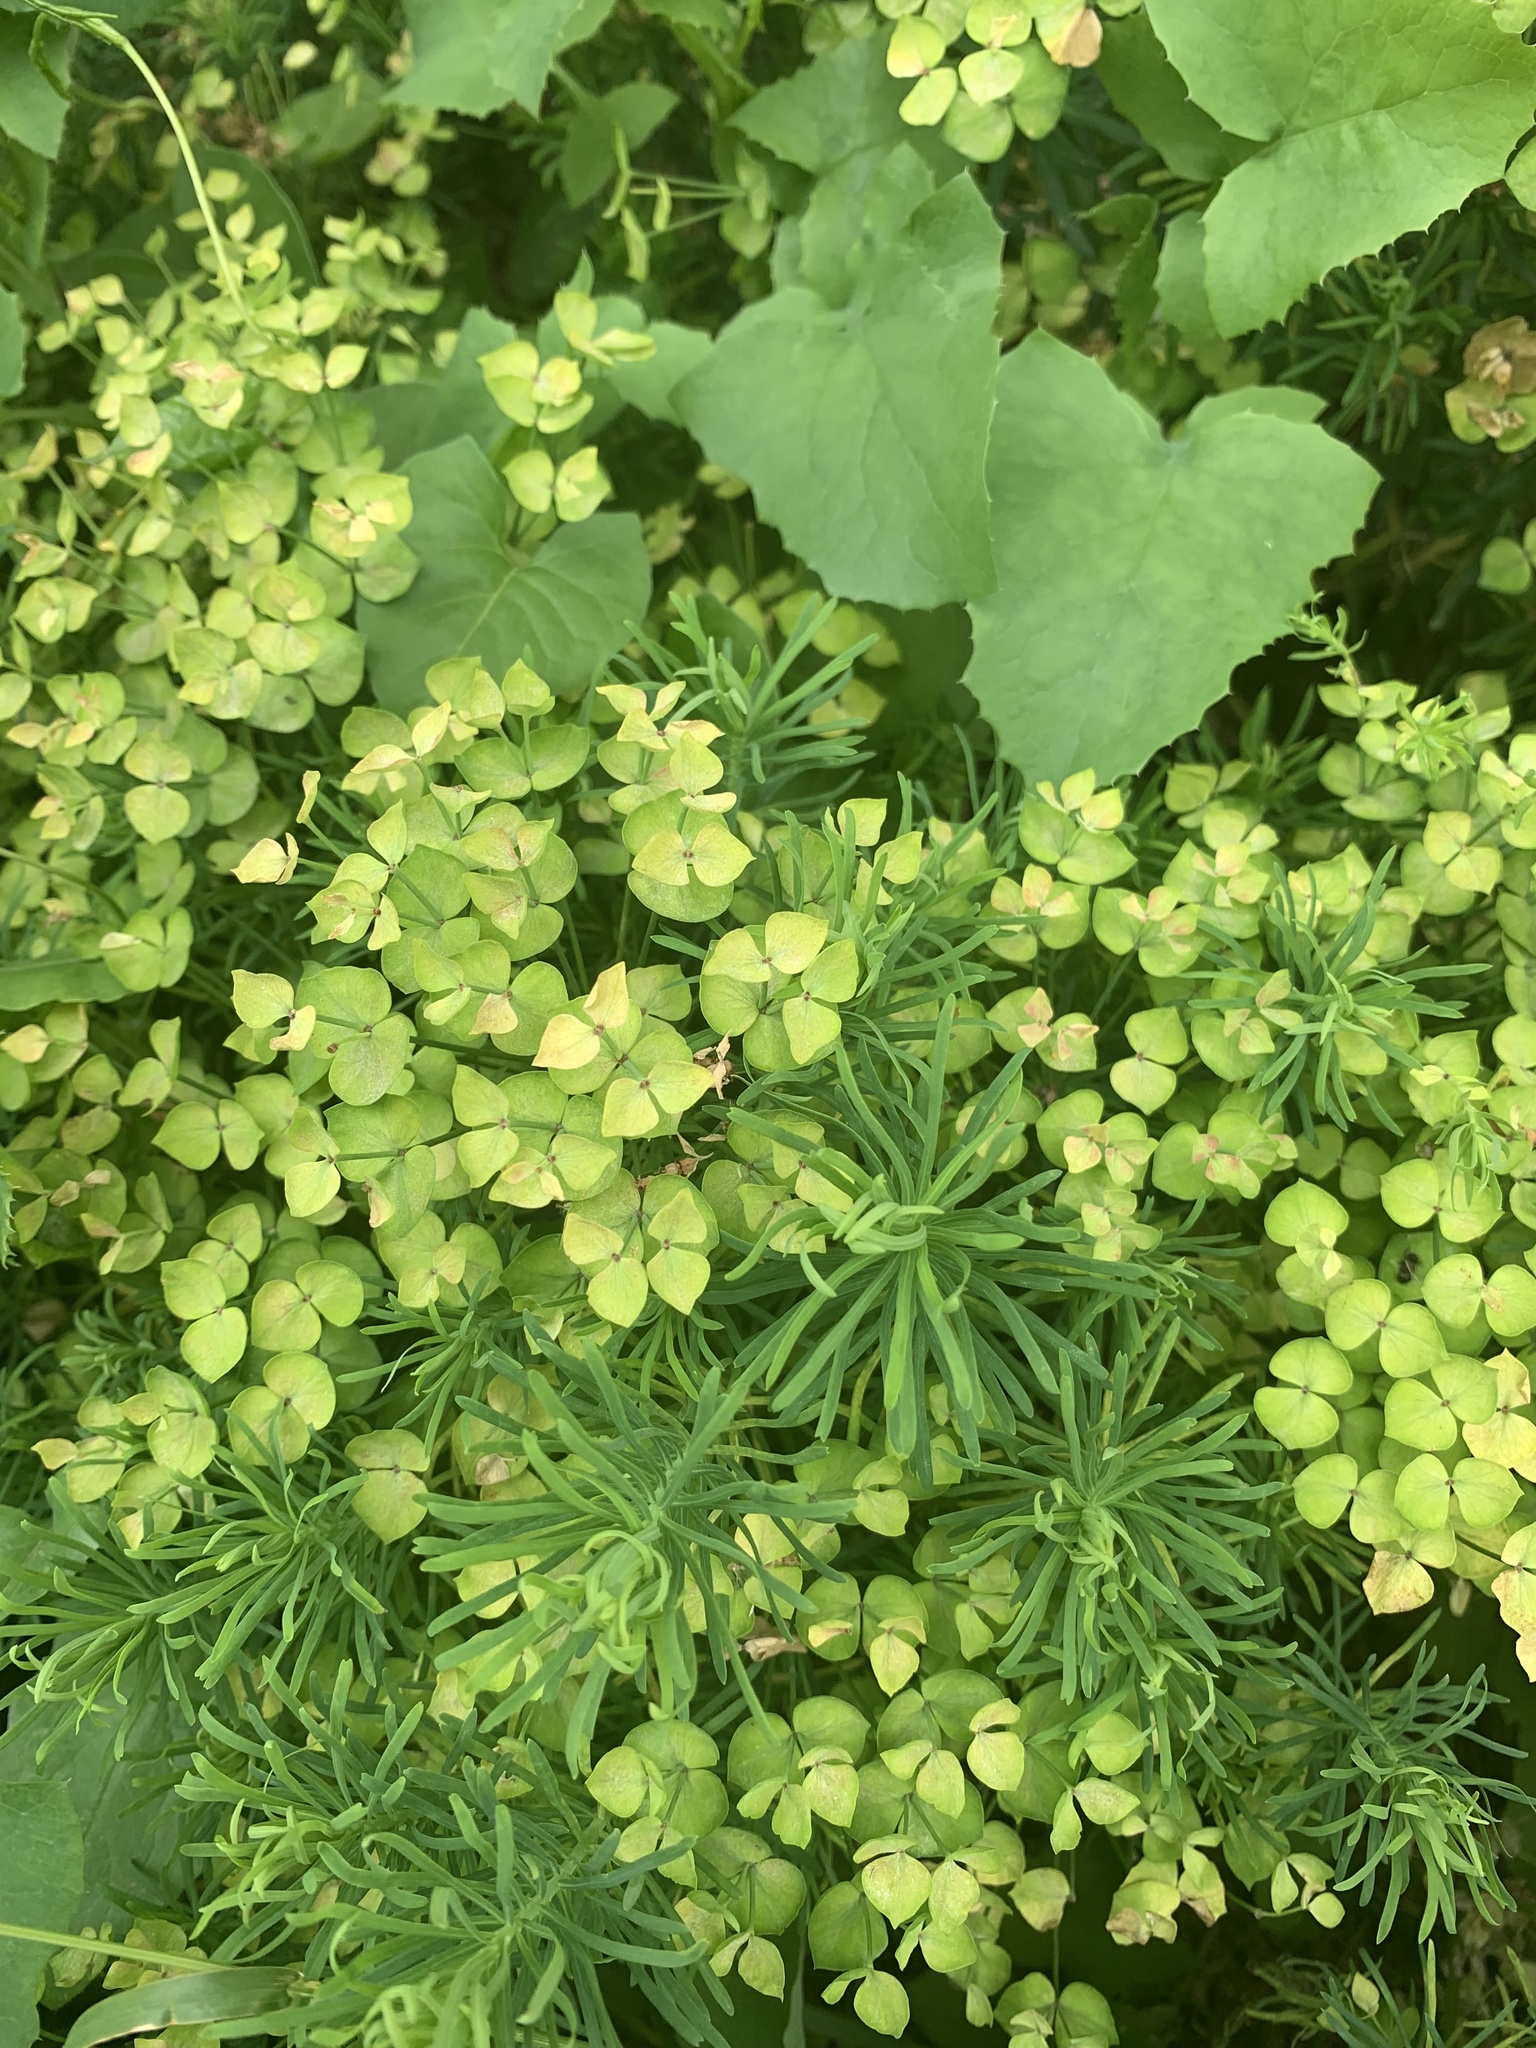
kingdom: Plantae
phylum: Tracheophyta
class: Magnoliopsida
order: Malpighiales
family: Euphorbiaceae
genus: Euphorbia
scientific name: Euphorbia cyparissias
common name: Cypress spurge
